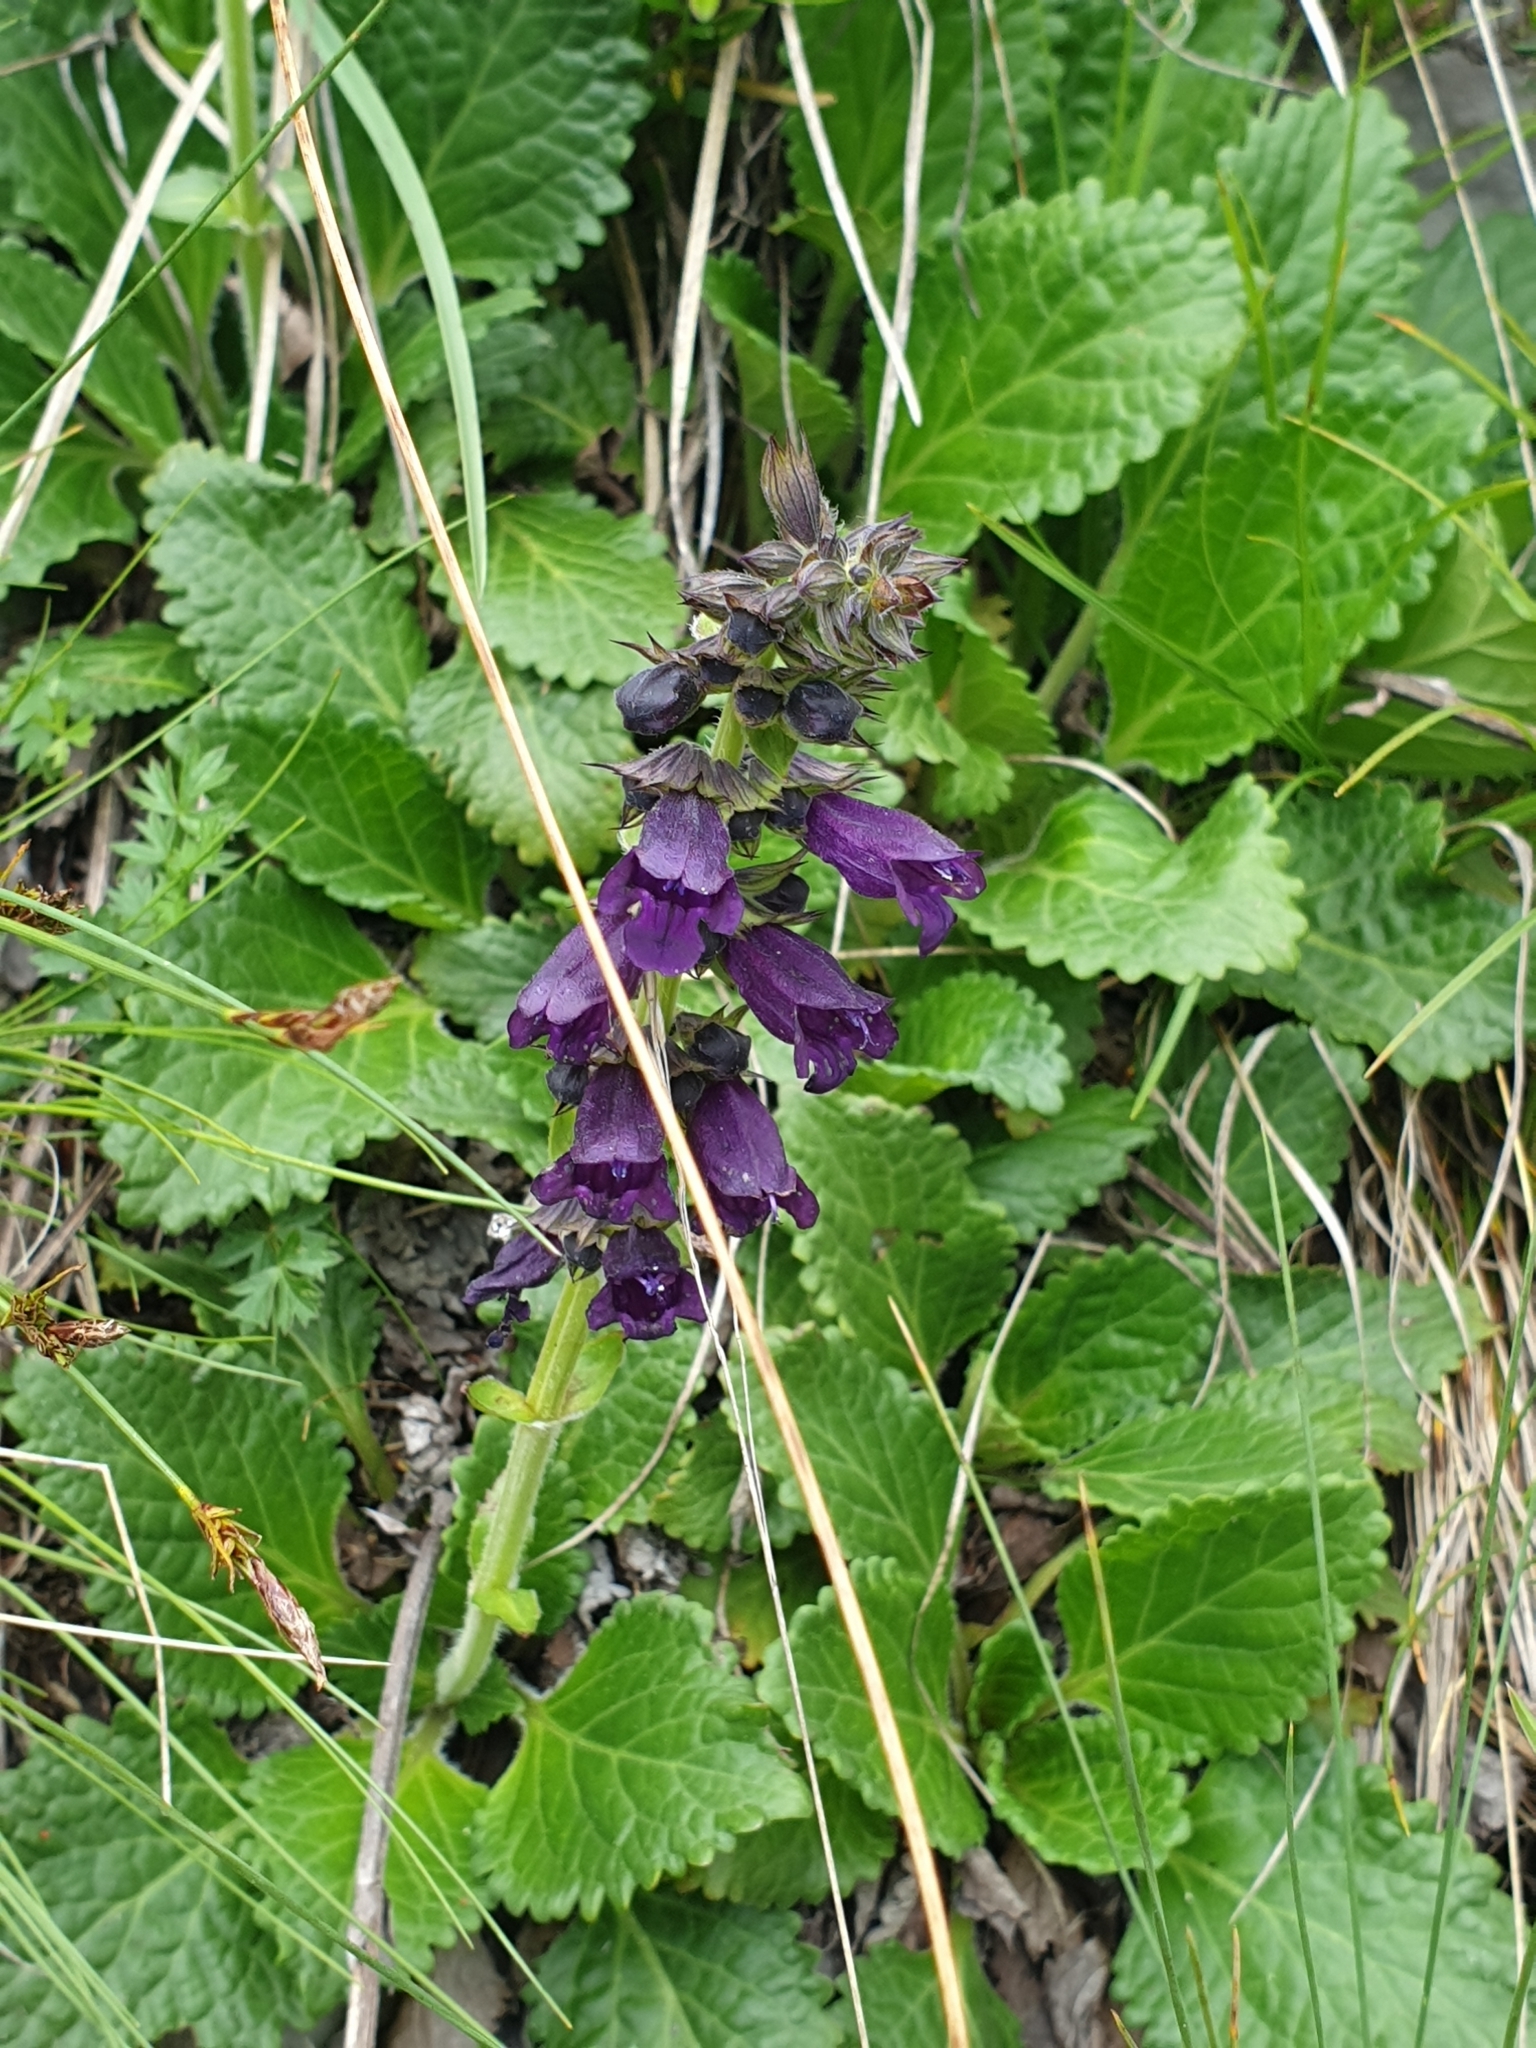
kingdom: Plantae
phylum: Tracheophyta
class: Magnoliopsida
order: Lamiales
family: Lamiaceae
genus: Horminum
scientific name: Horminum pyrenaicum
